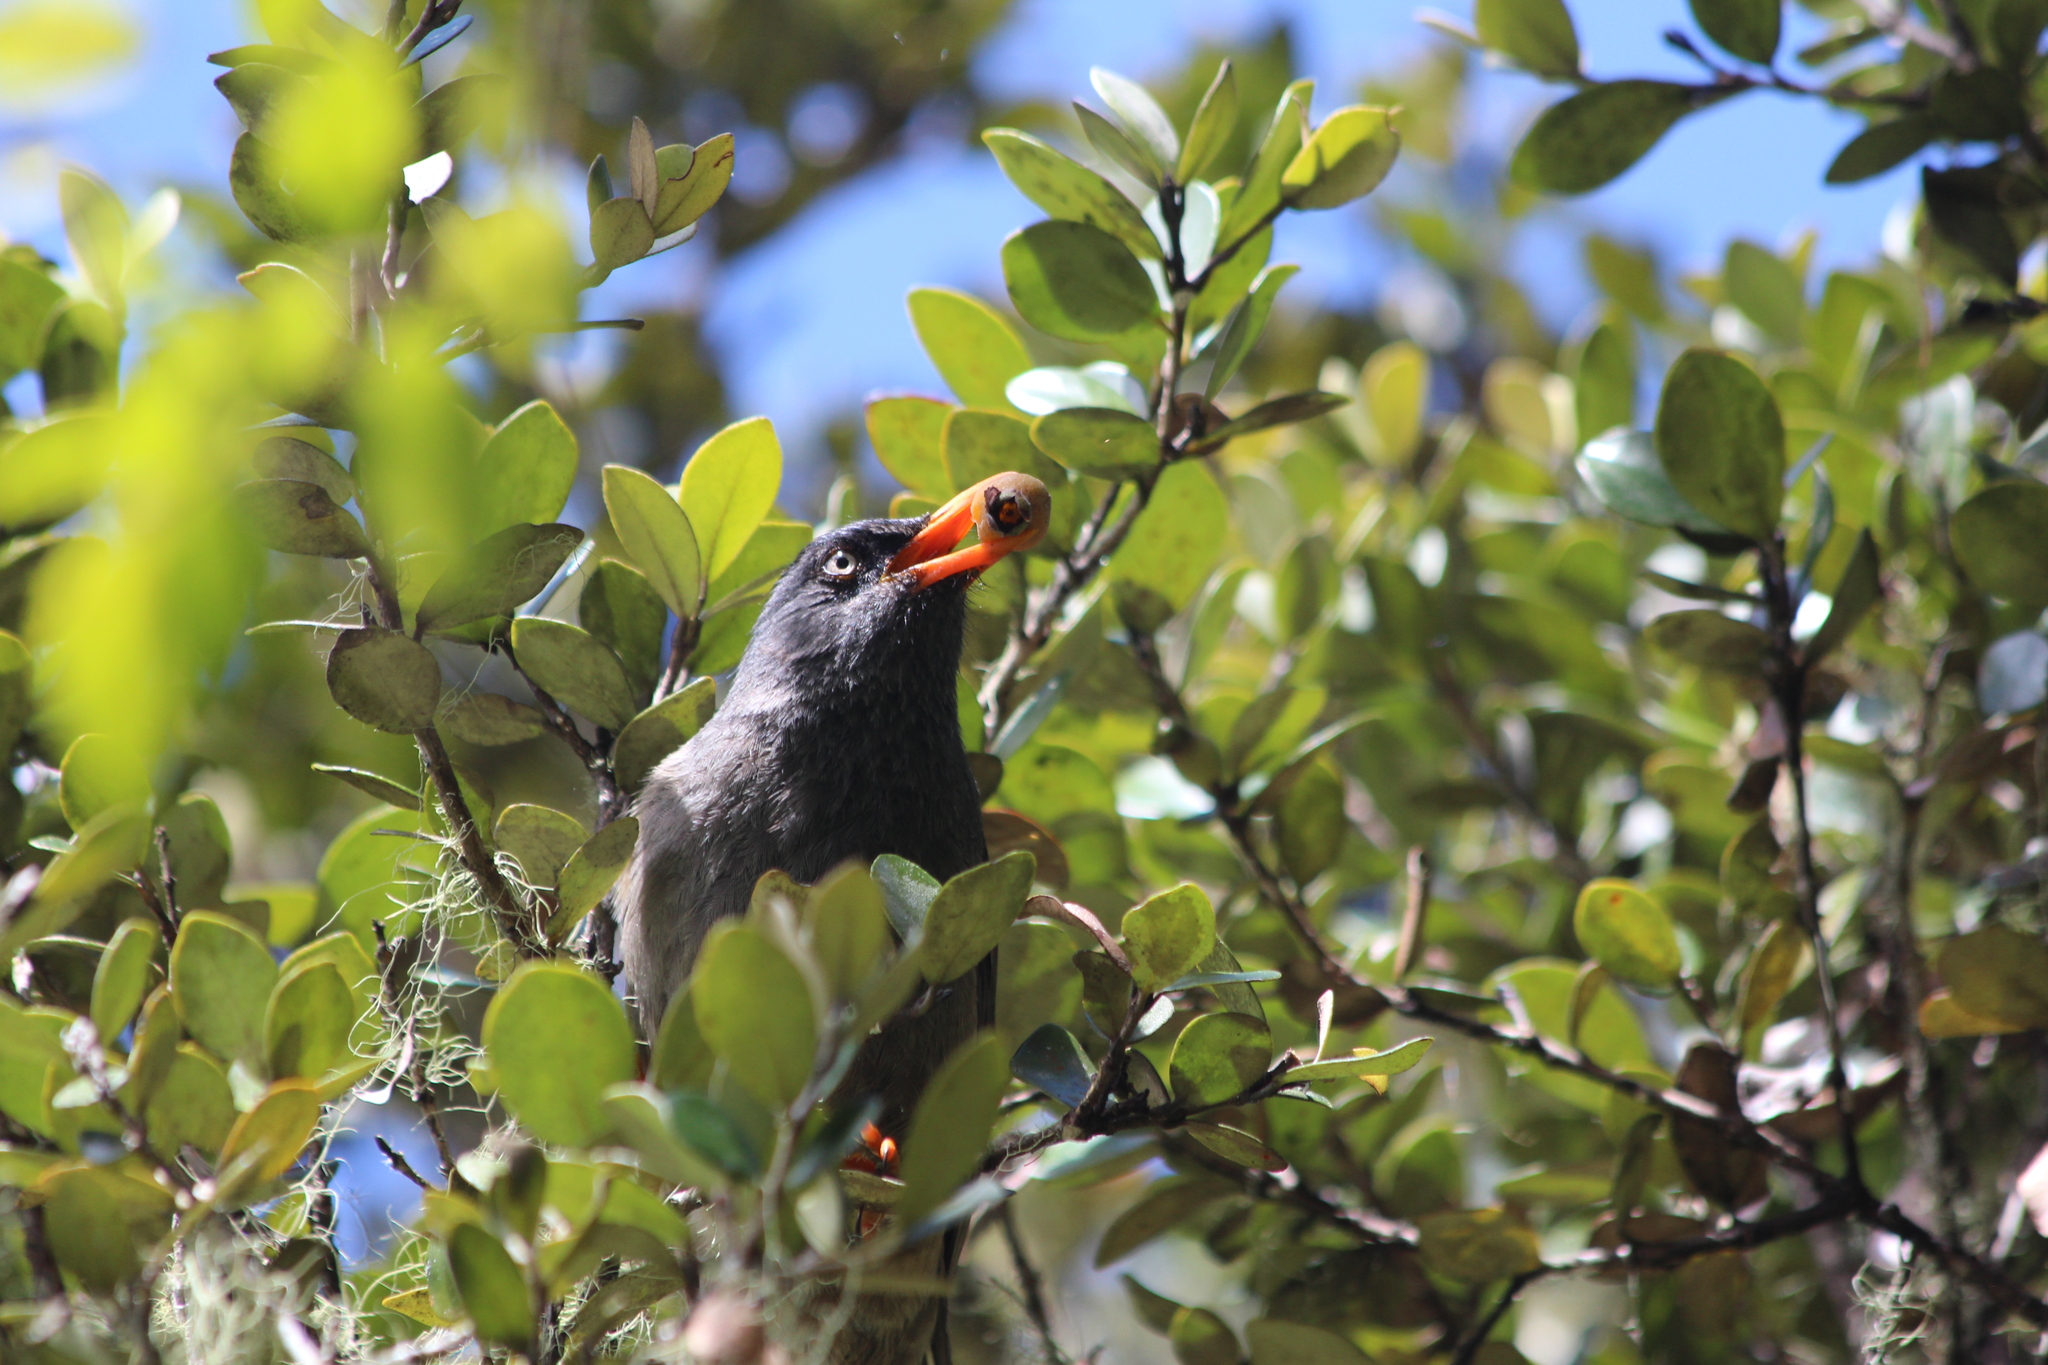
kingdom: Animalia
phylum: Chordata
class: Aves
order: Passeriformes
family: Pycnonotidae
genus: Hypsipetes
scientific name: Hypsipetes borbonicus
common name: Reunion bulbul
